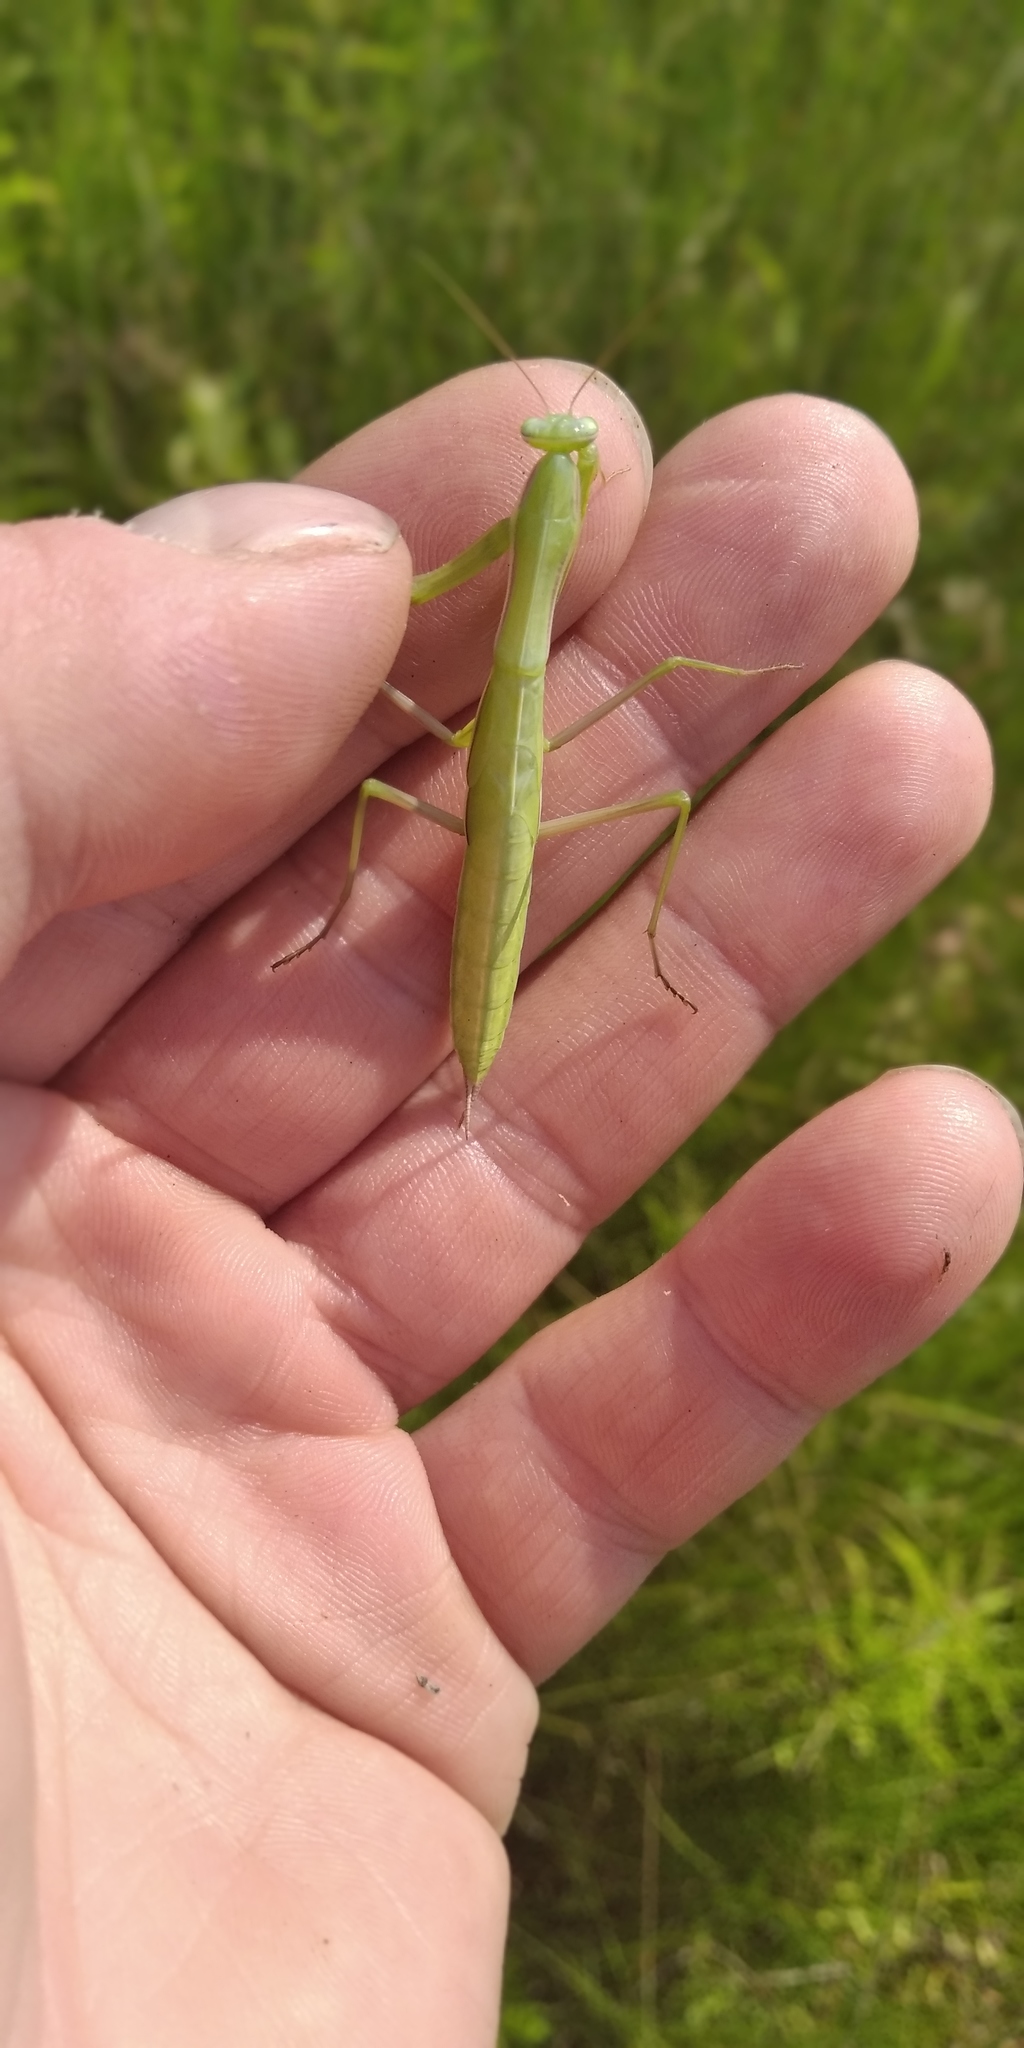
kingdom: Animalia
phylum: Arthropoda
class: Insecta
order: Mantodea
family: Mantidae
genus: Mantis
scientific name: Mantis religiosa
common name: Praying mantis
